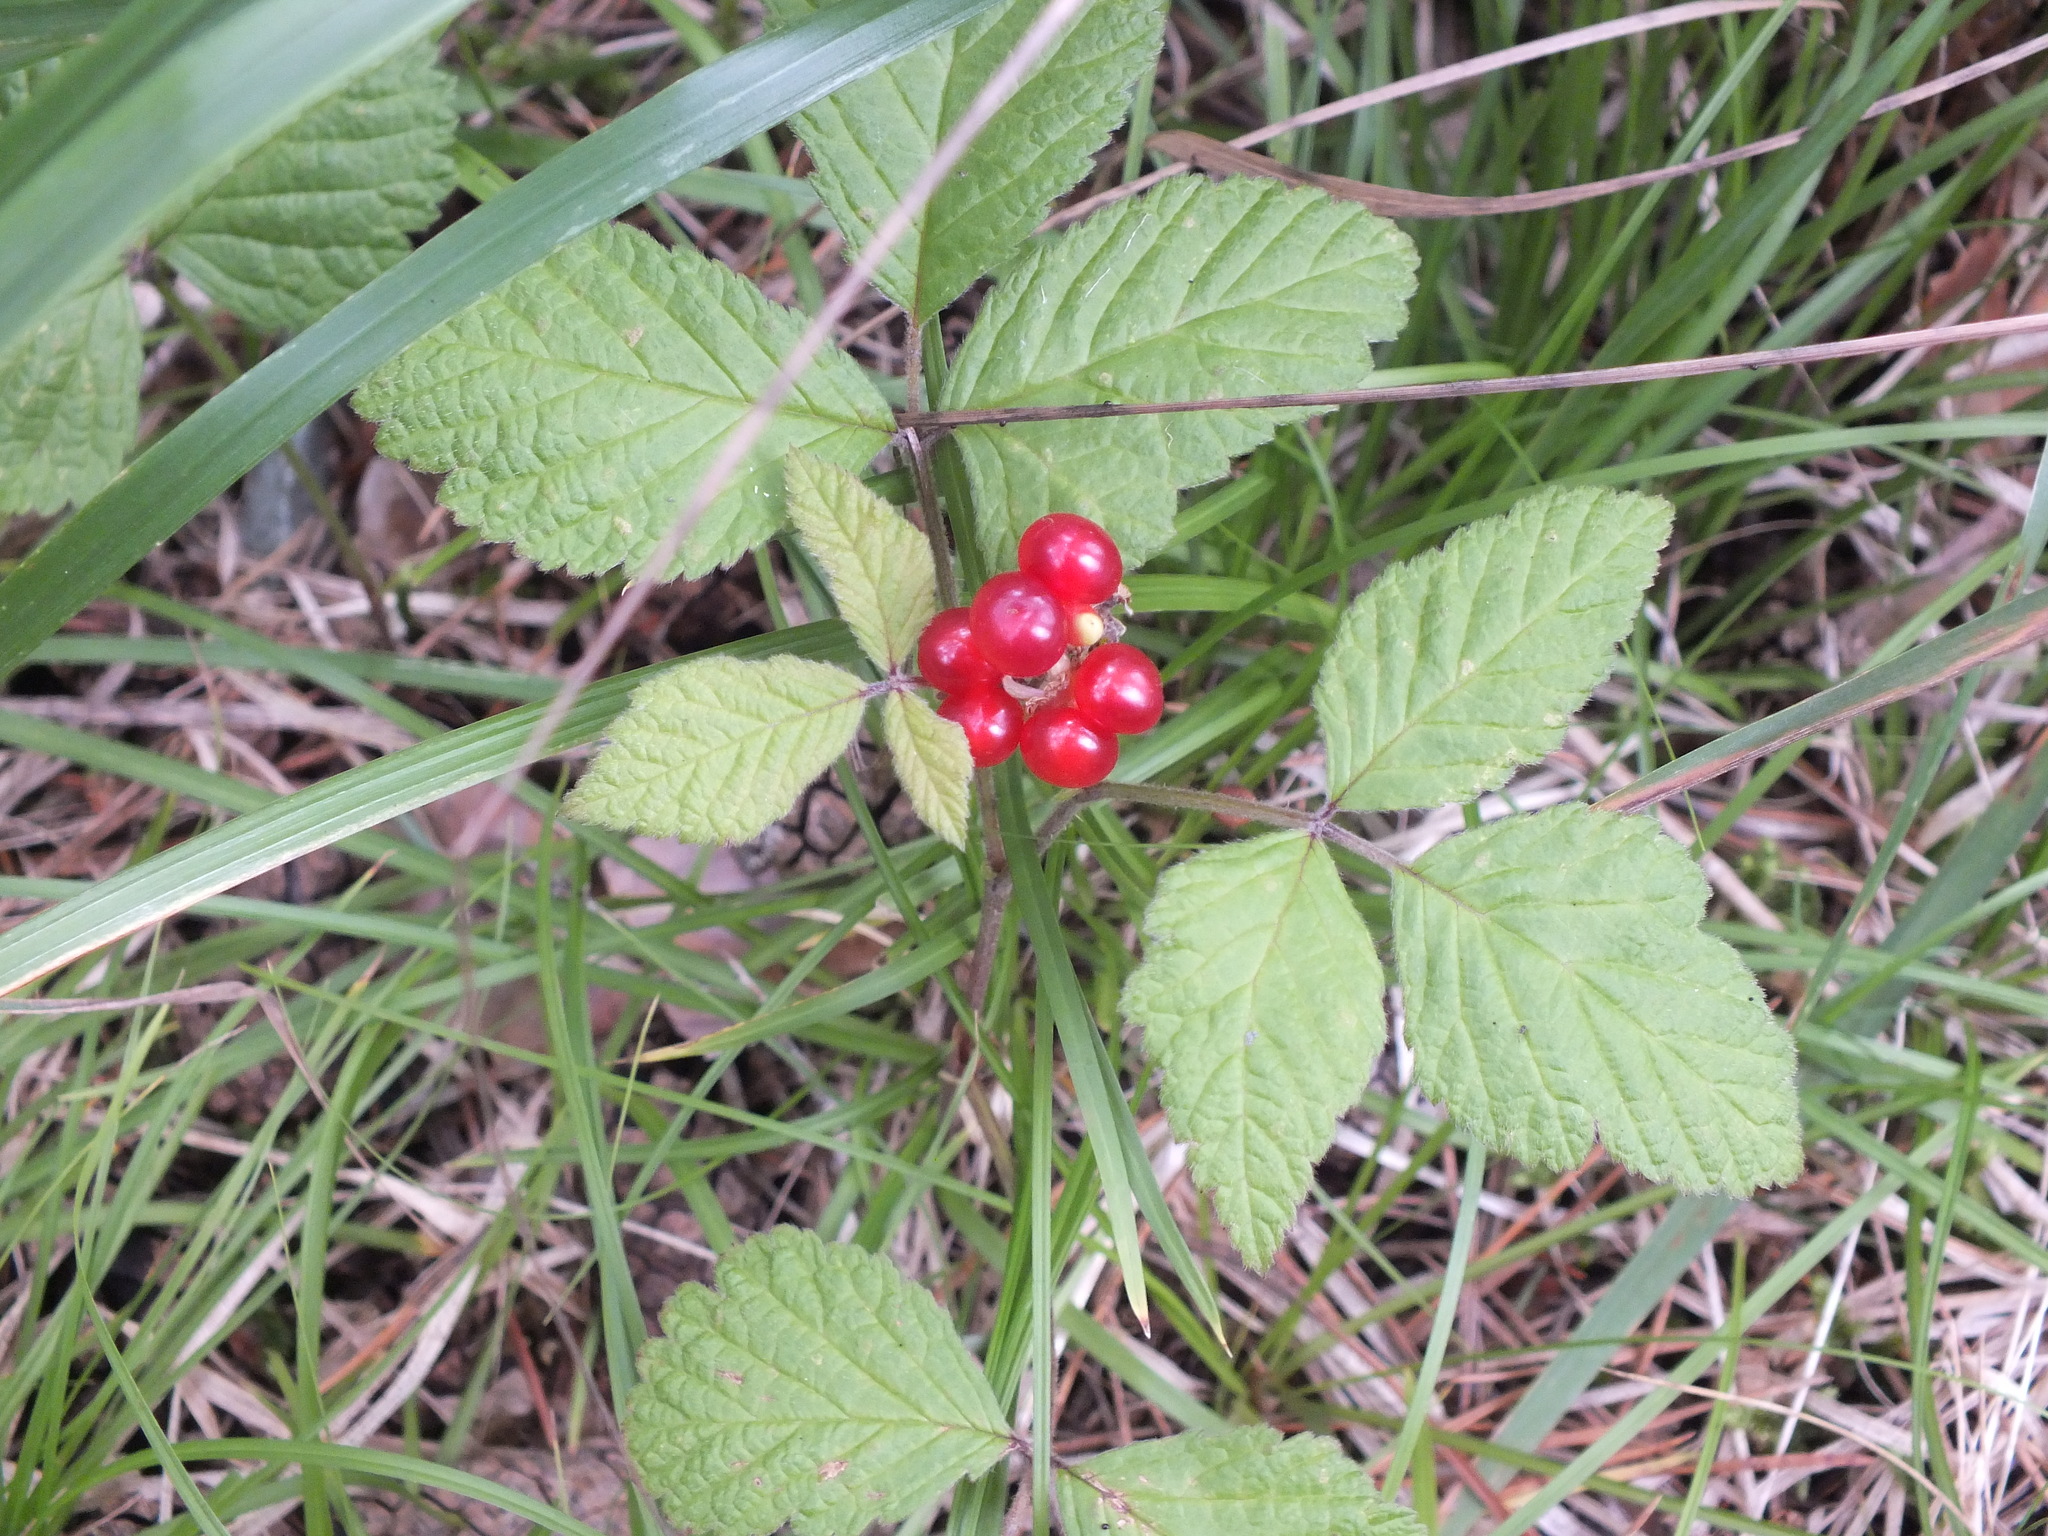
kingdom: Plantae
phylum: Tracheophyta
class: Magnoliopsida
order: Rosales
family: Rosaceae
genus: Rubus
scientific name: Rubus saxatilis
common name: Stone bramble
